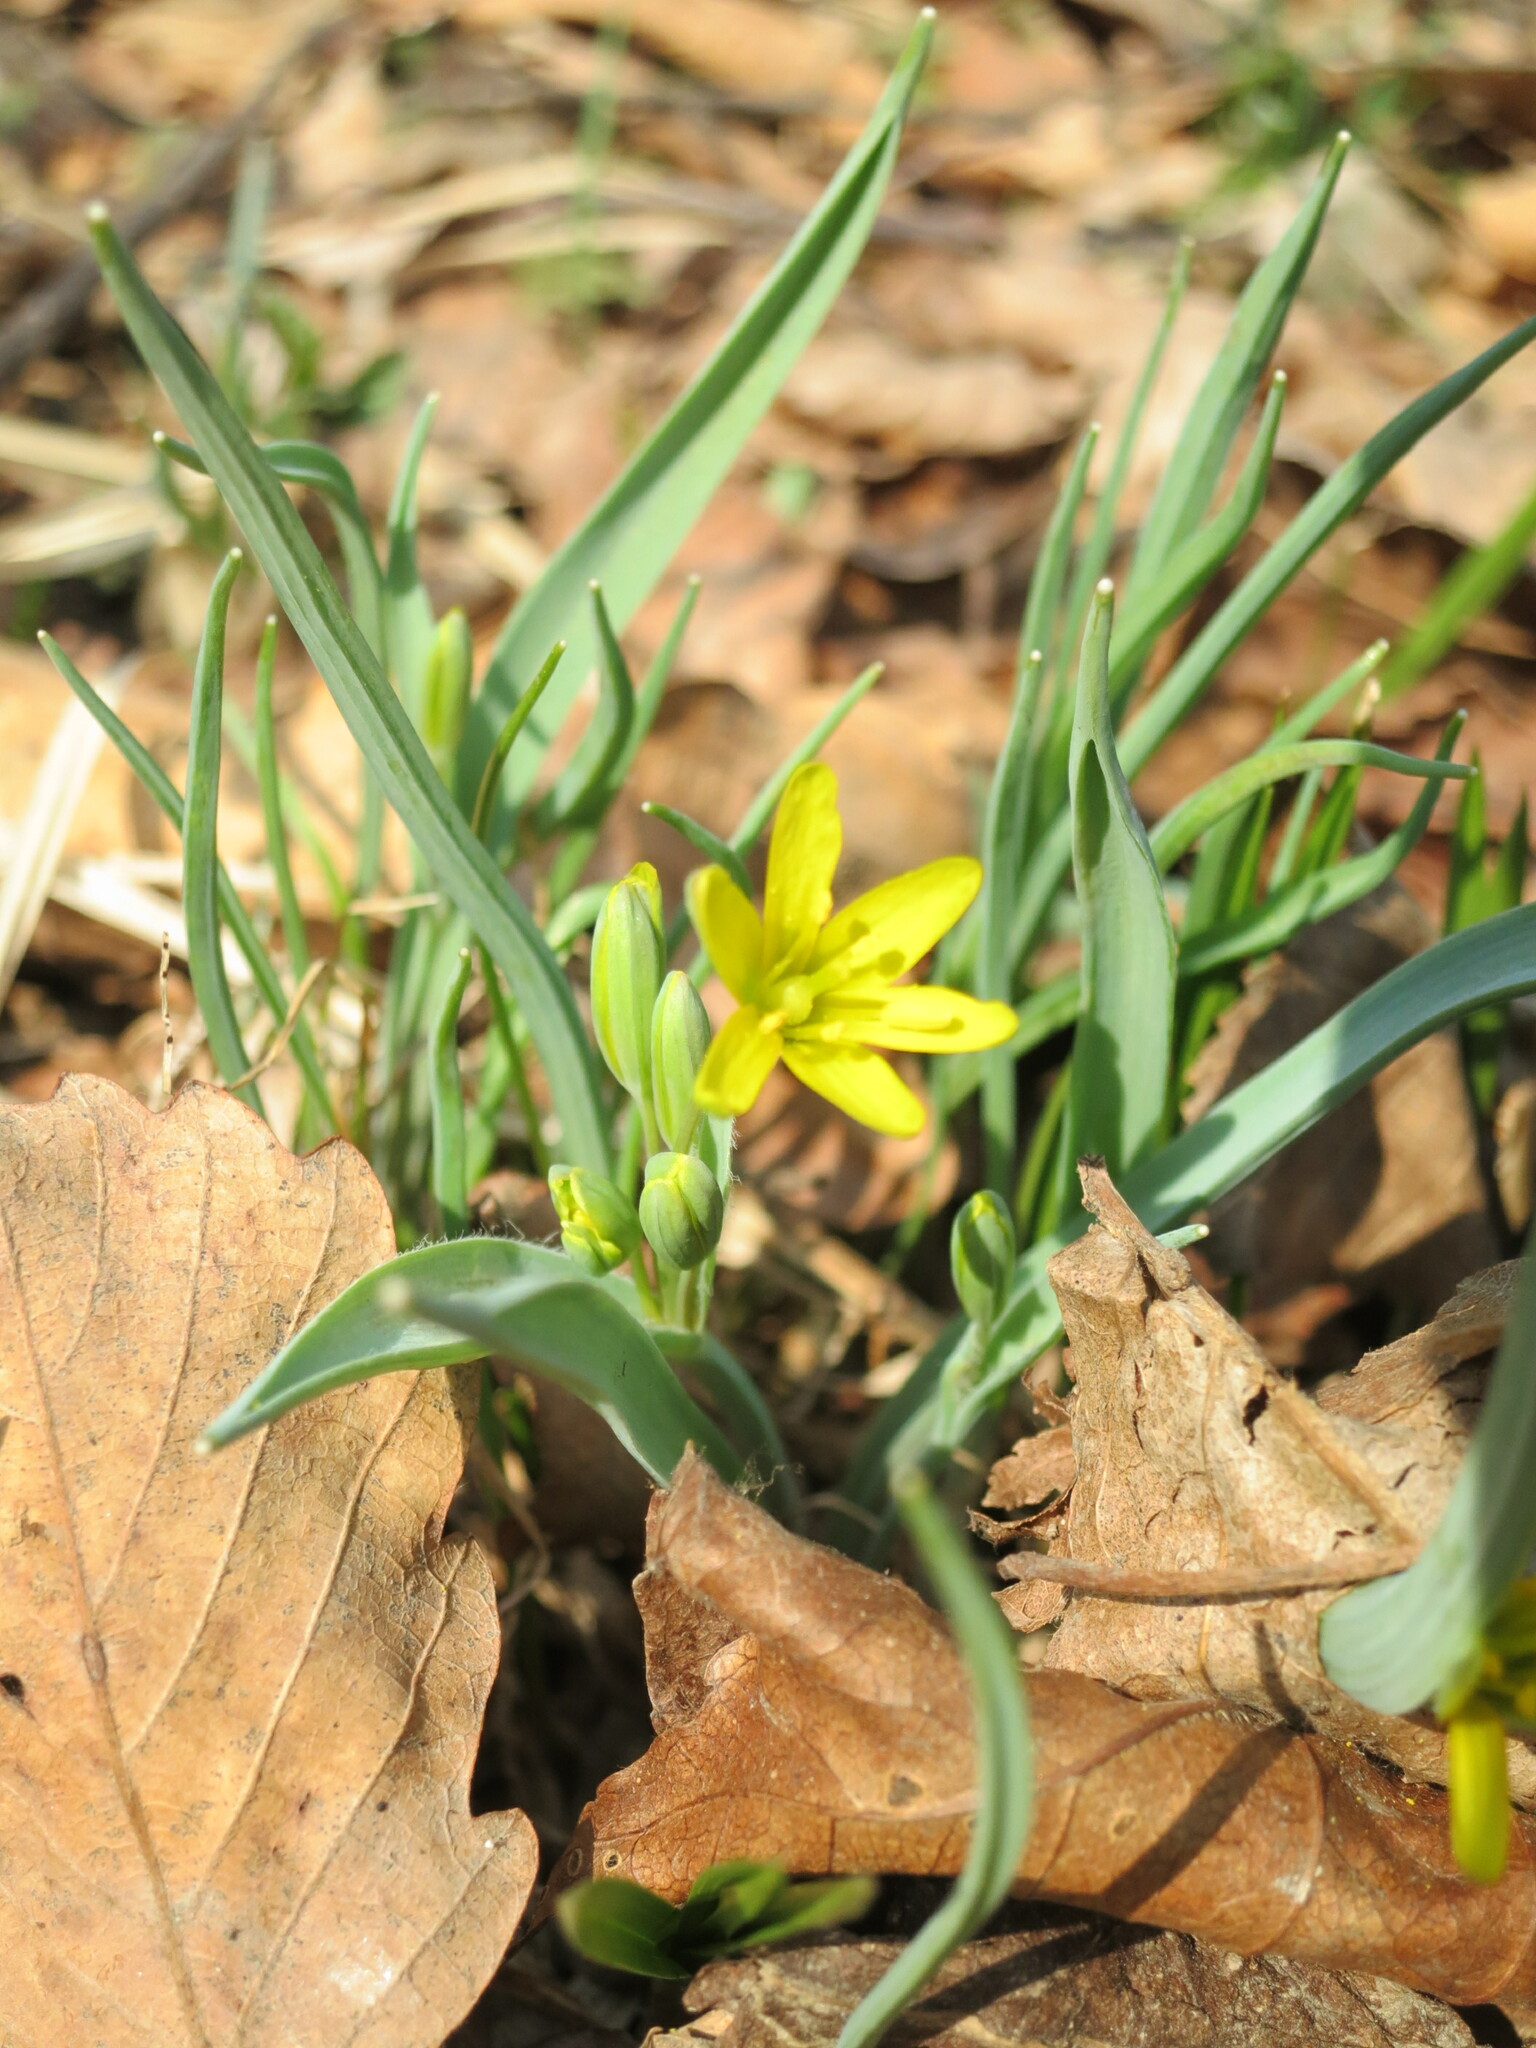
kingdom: Plantae
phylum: Tracheophyta
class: Liliopsida
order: Liliales
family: Liliaceae
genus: Gagea
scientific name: Gagea nakaiana
